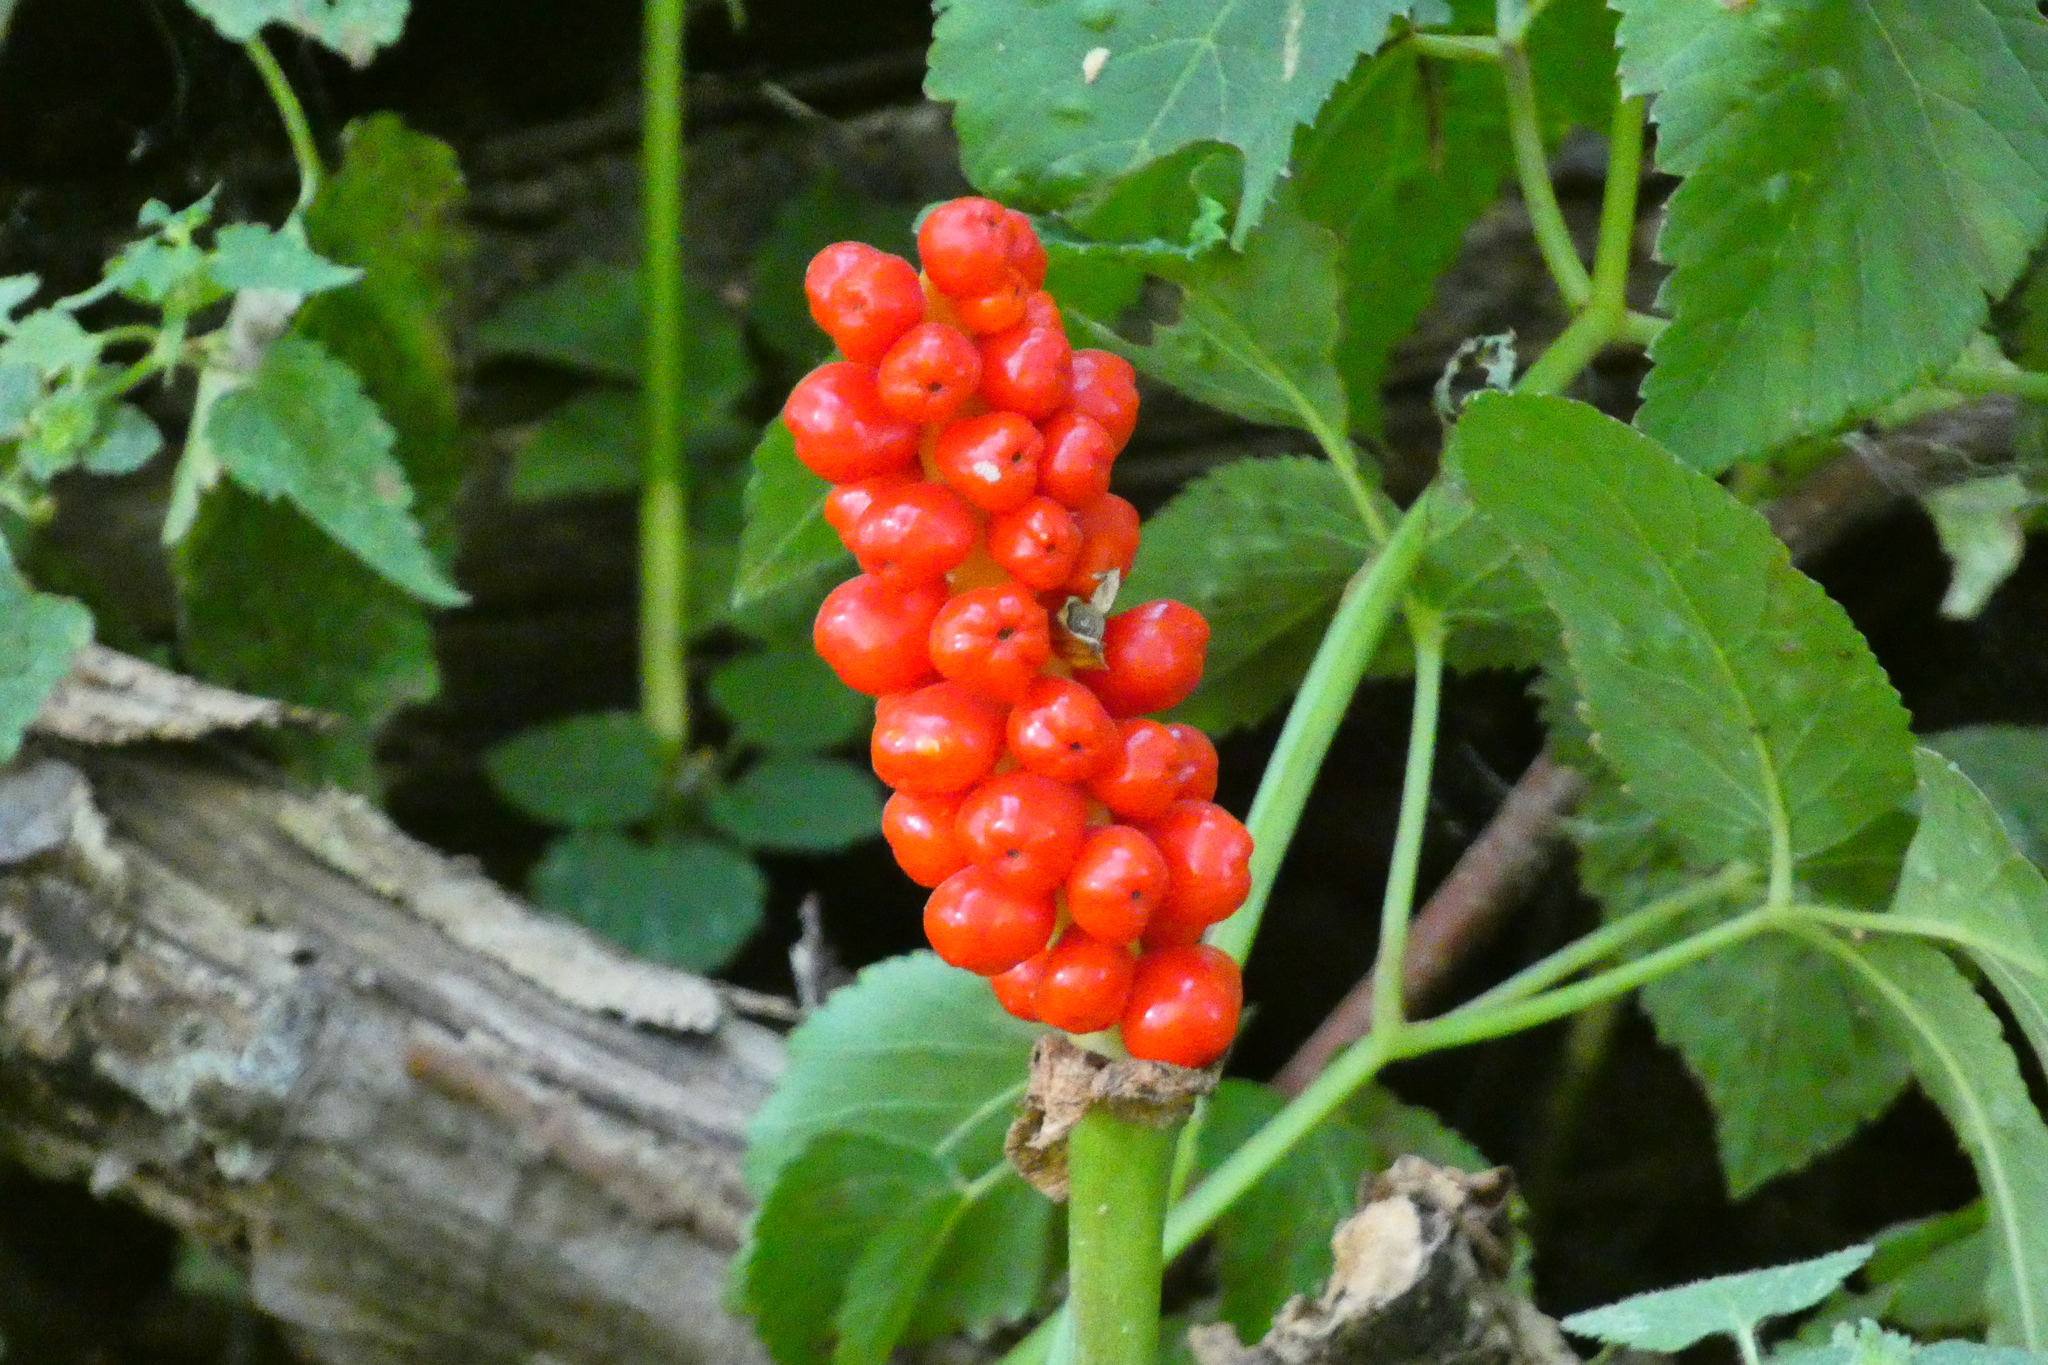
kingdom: Plantae
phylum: Tracheophyta
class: Liliopsida
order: Alismatales
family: Araceae
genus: Arum
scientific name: Arum maculatum
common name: Lords-and-ladies
